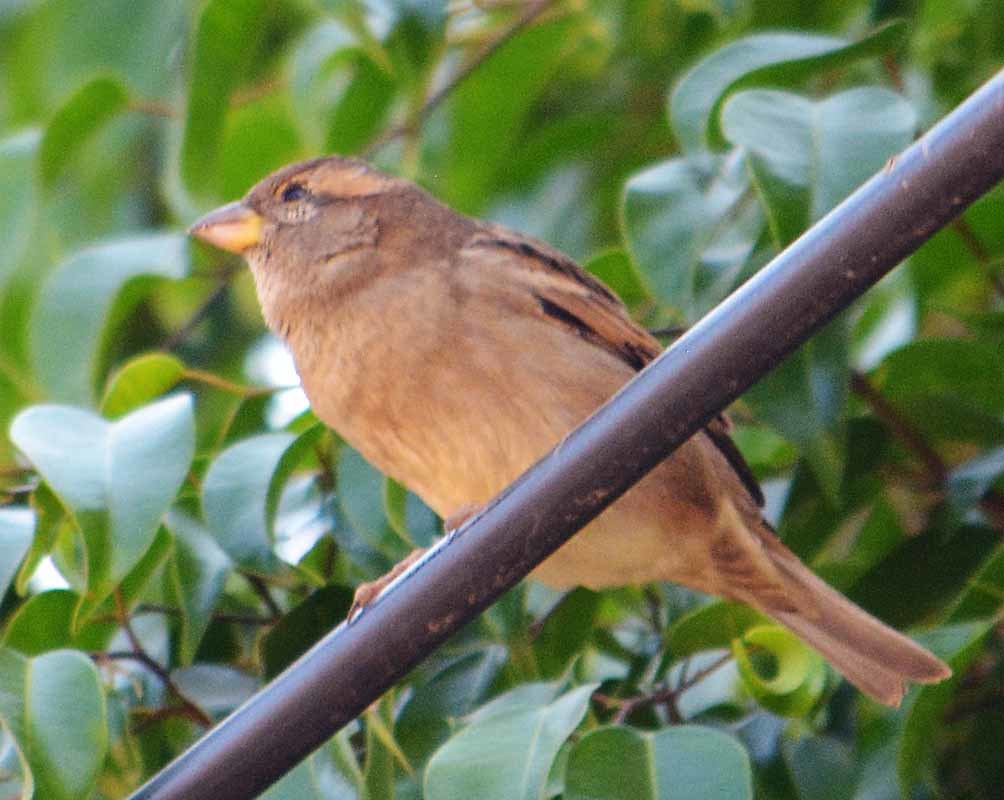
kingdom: Animalia
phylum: Chordata
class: Aves
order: Passeriformes
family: Passeridae
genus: Passer
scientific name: Passer domesticus
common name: House sparrow
